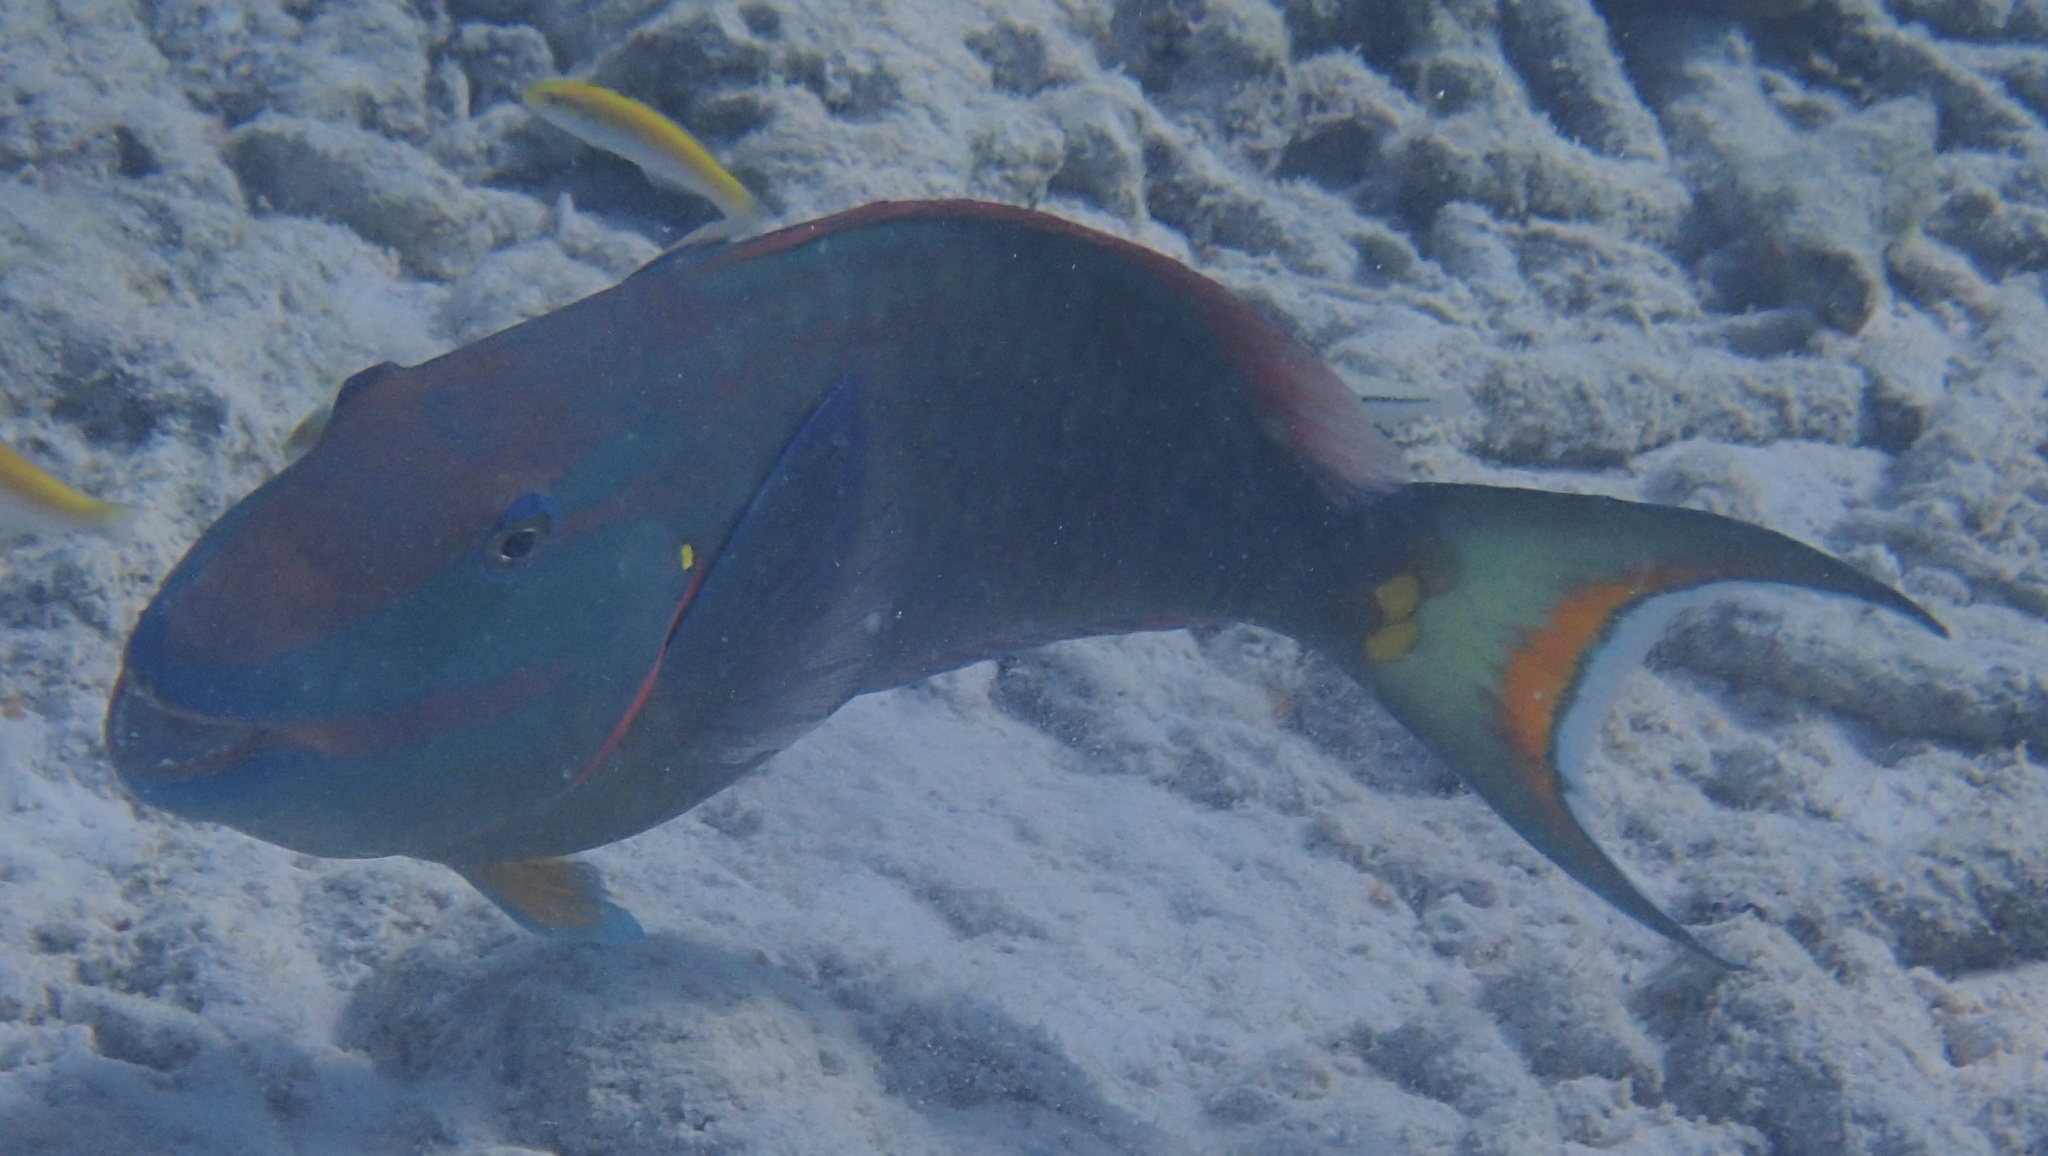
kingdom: Animalia
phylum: Chordata
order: Perciformes
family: Scaridae
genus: Sparisoma
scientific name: Sparisoma viride
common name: Stoplight parrotfish
